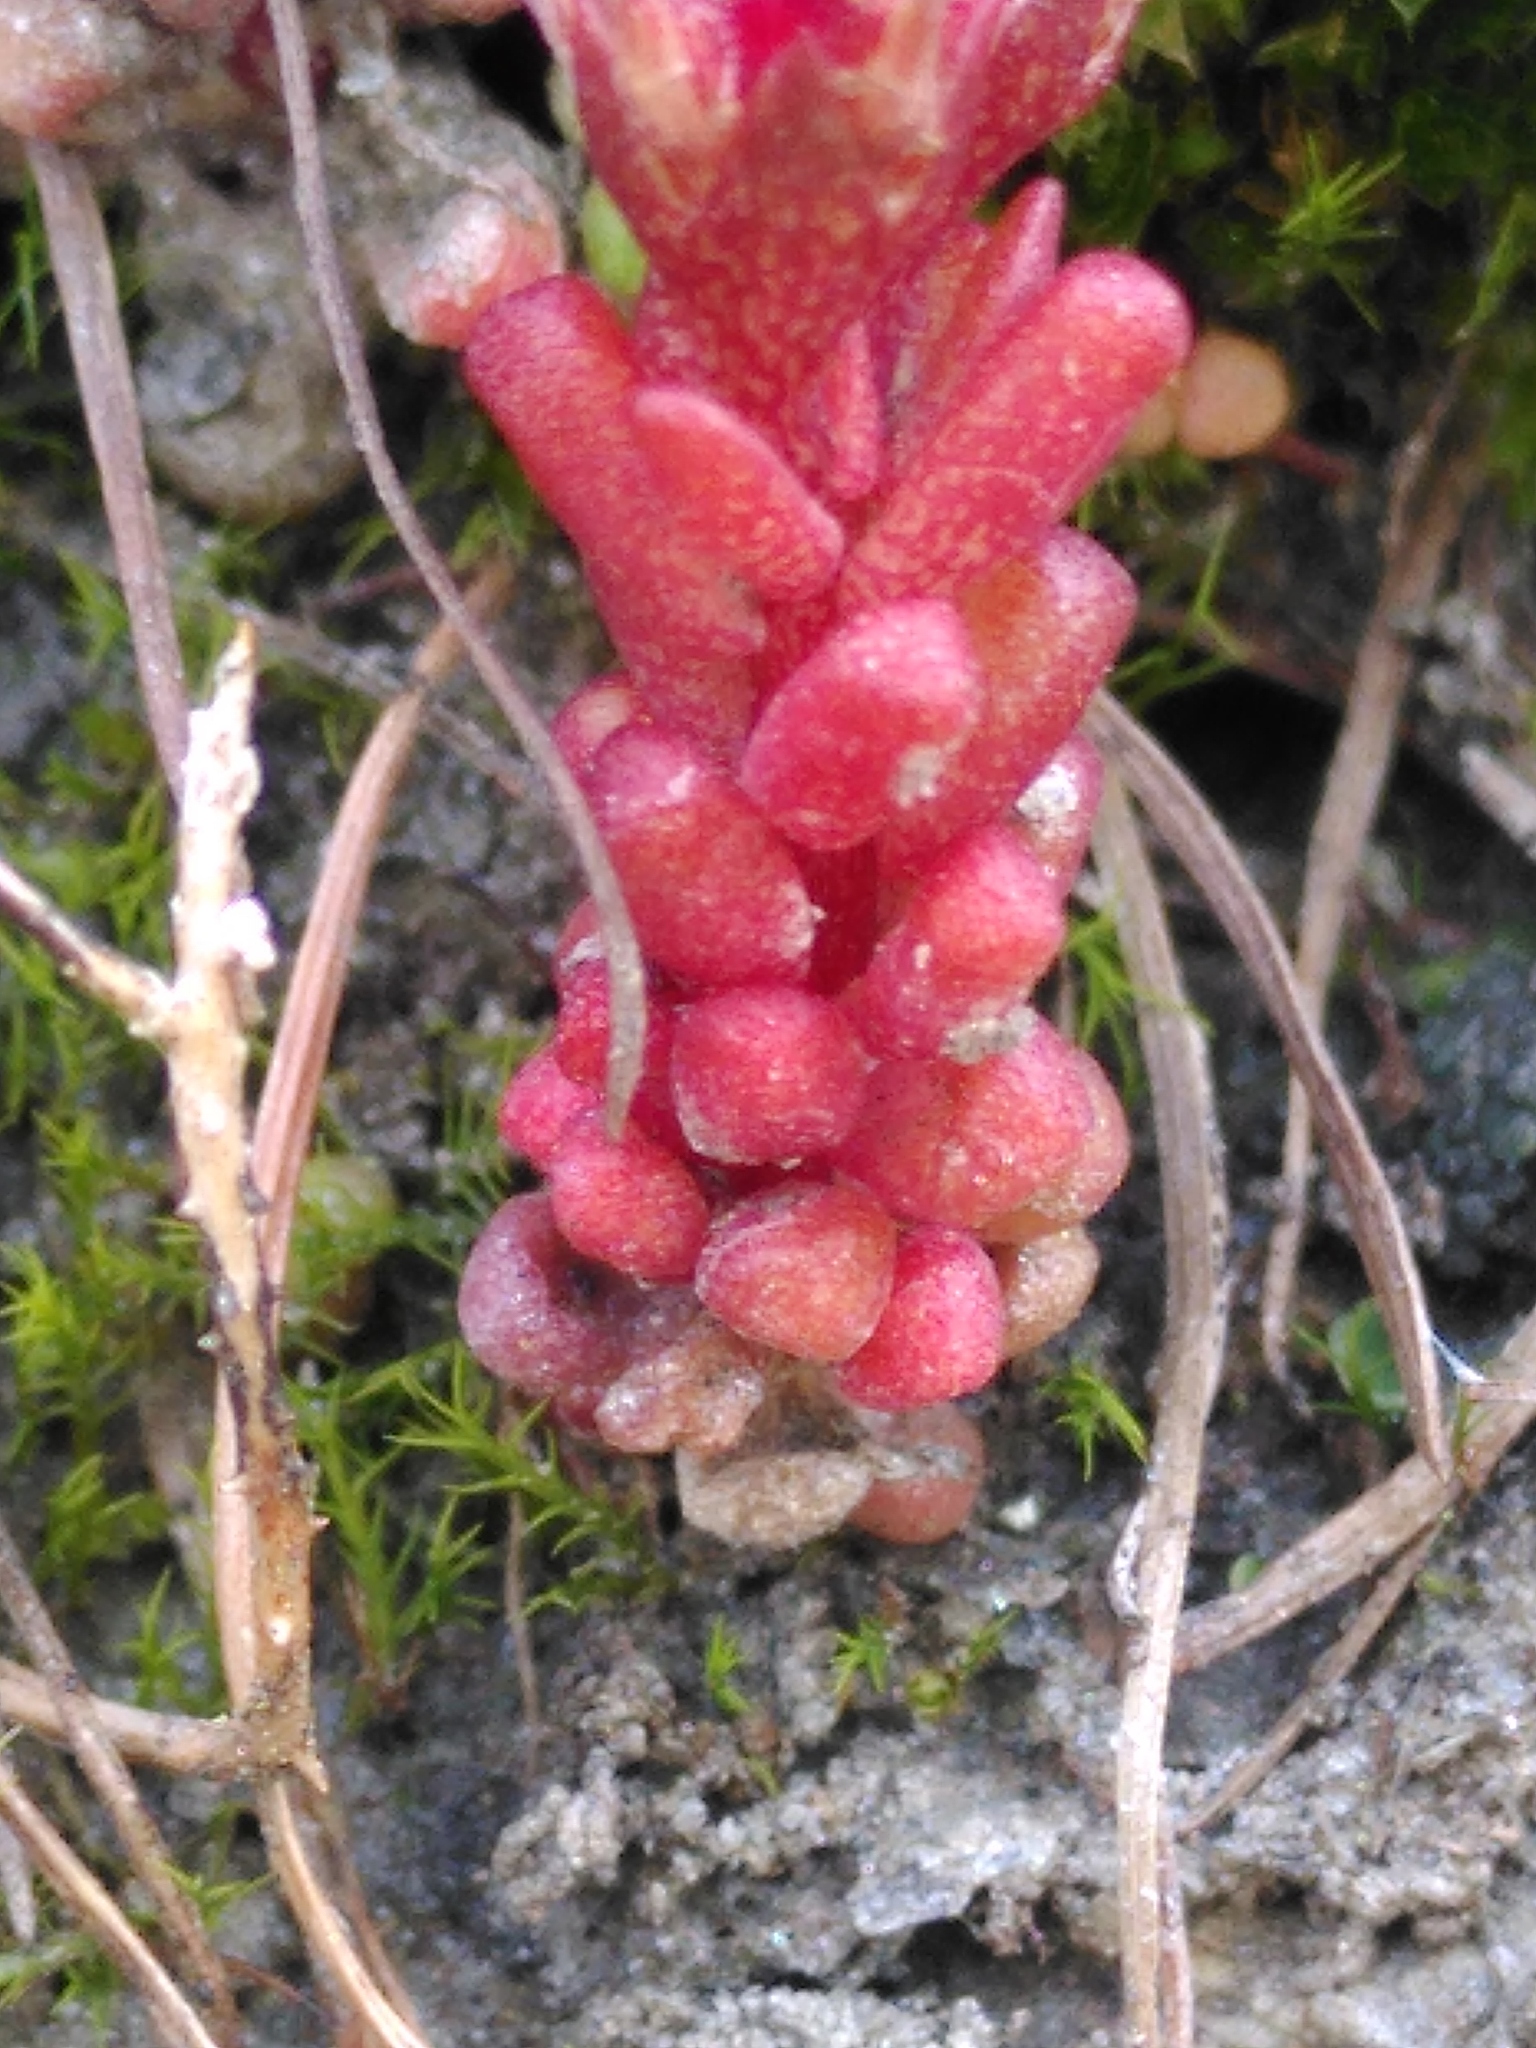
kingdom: Plantae
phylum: Tracheophyta
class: Magnoliopsida
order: Saxifragales
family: Crassulaceae
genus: Sedum
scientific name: Sedum atratum
